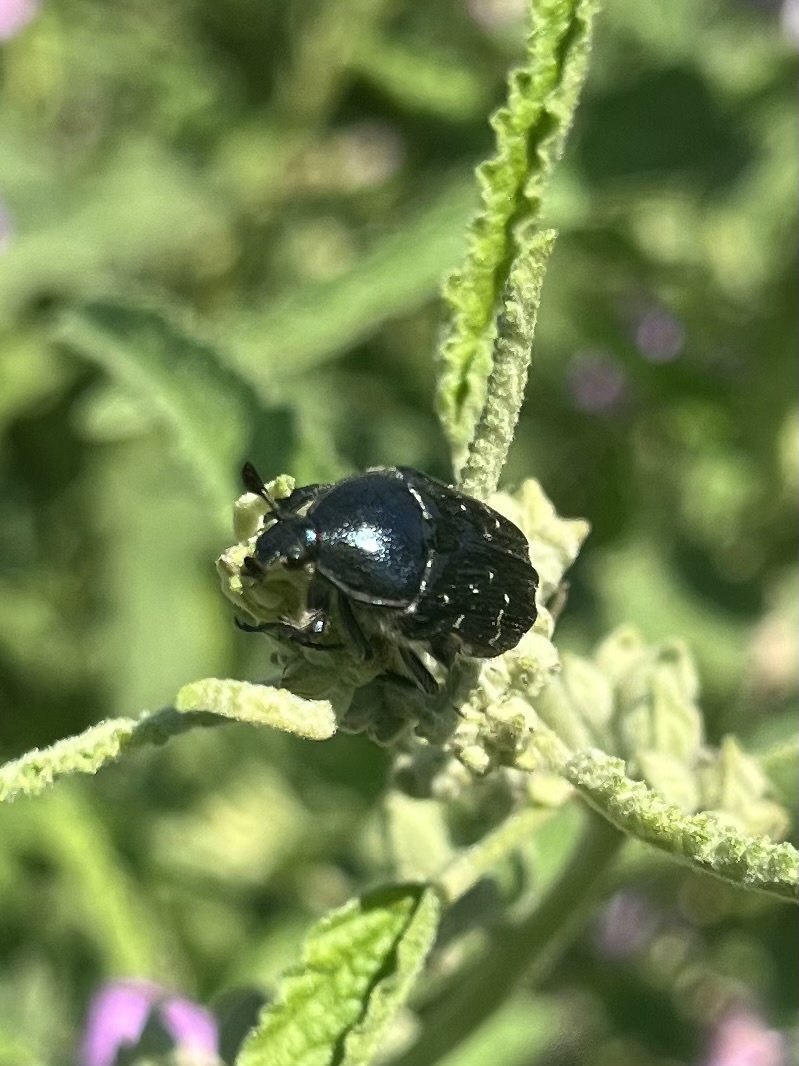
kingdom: Animalia
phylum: Arthropoda
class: Insecta
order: Coleoptera
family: Scarabaeidae
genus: Euphoria
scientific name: Euphoria sepulcralis
